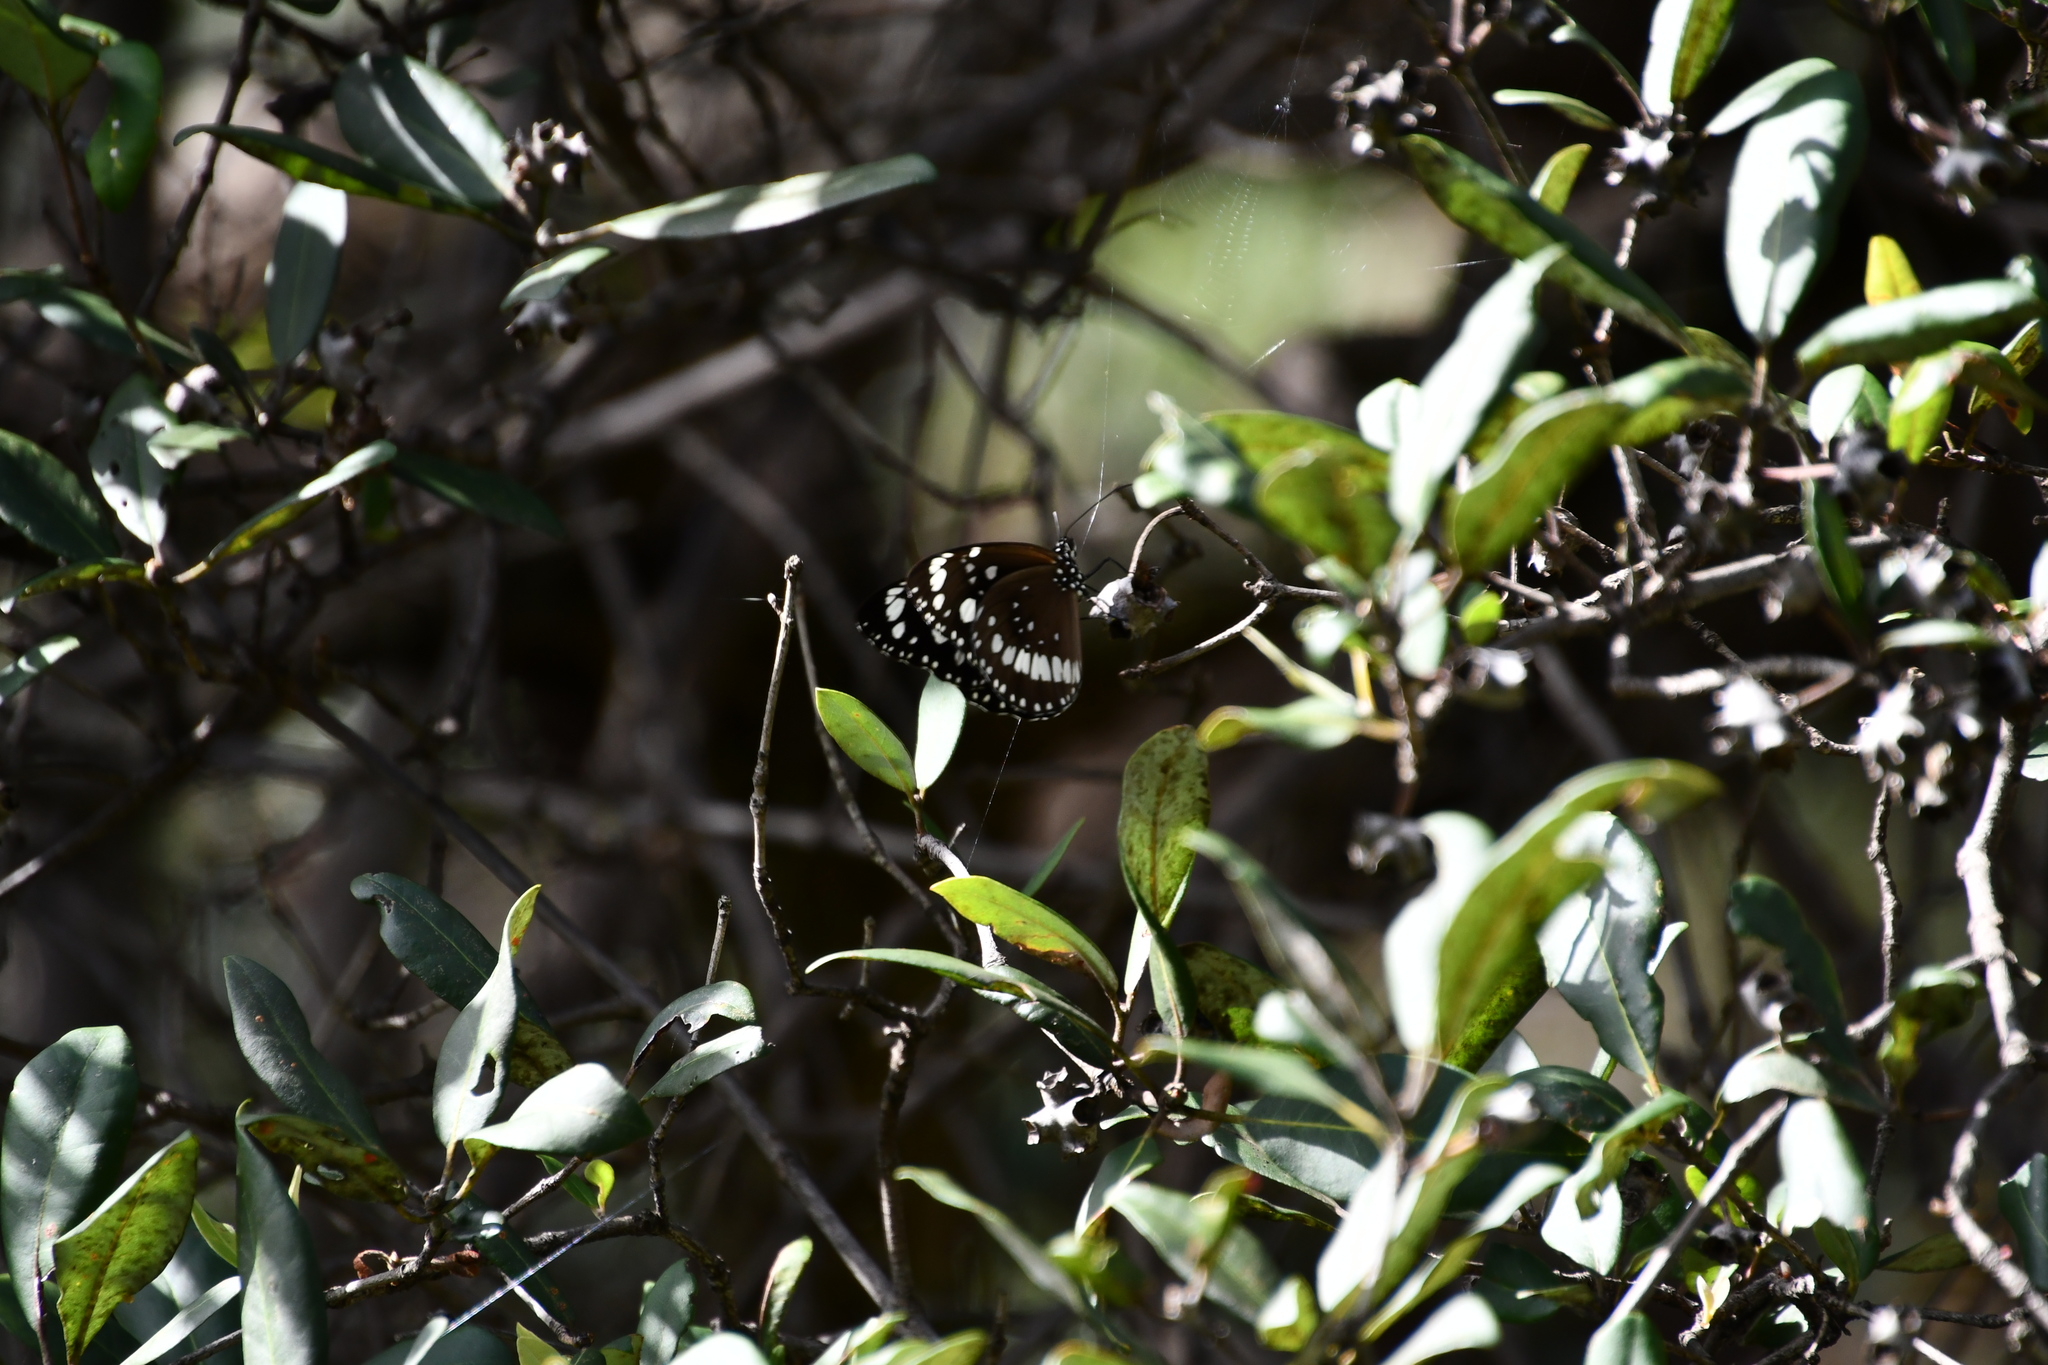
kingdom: Animalia
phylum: Arthropoda
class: Insecta
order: Lepidoptera
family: Nymphalidae
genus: Euploea
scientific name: Euploea core
